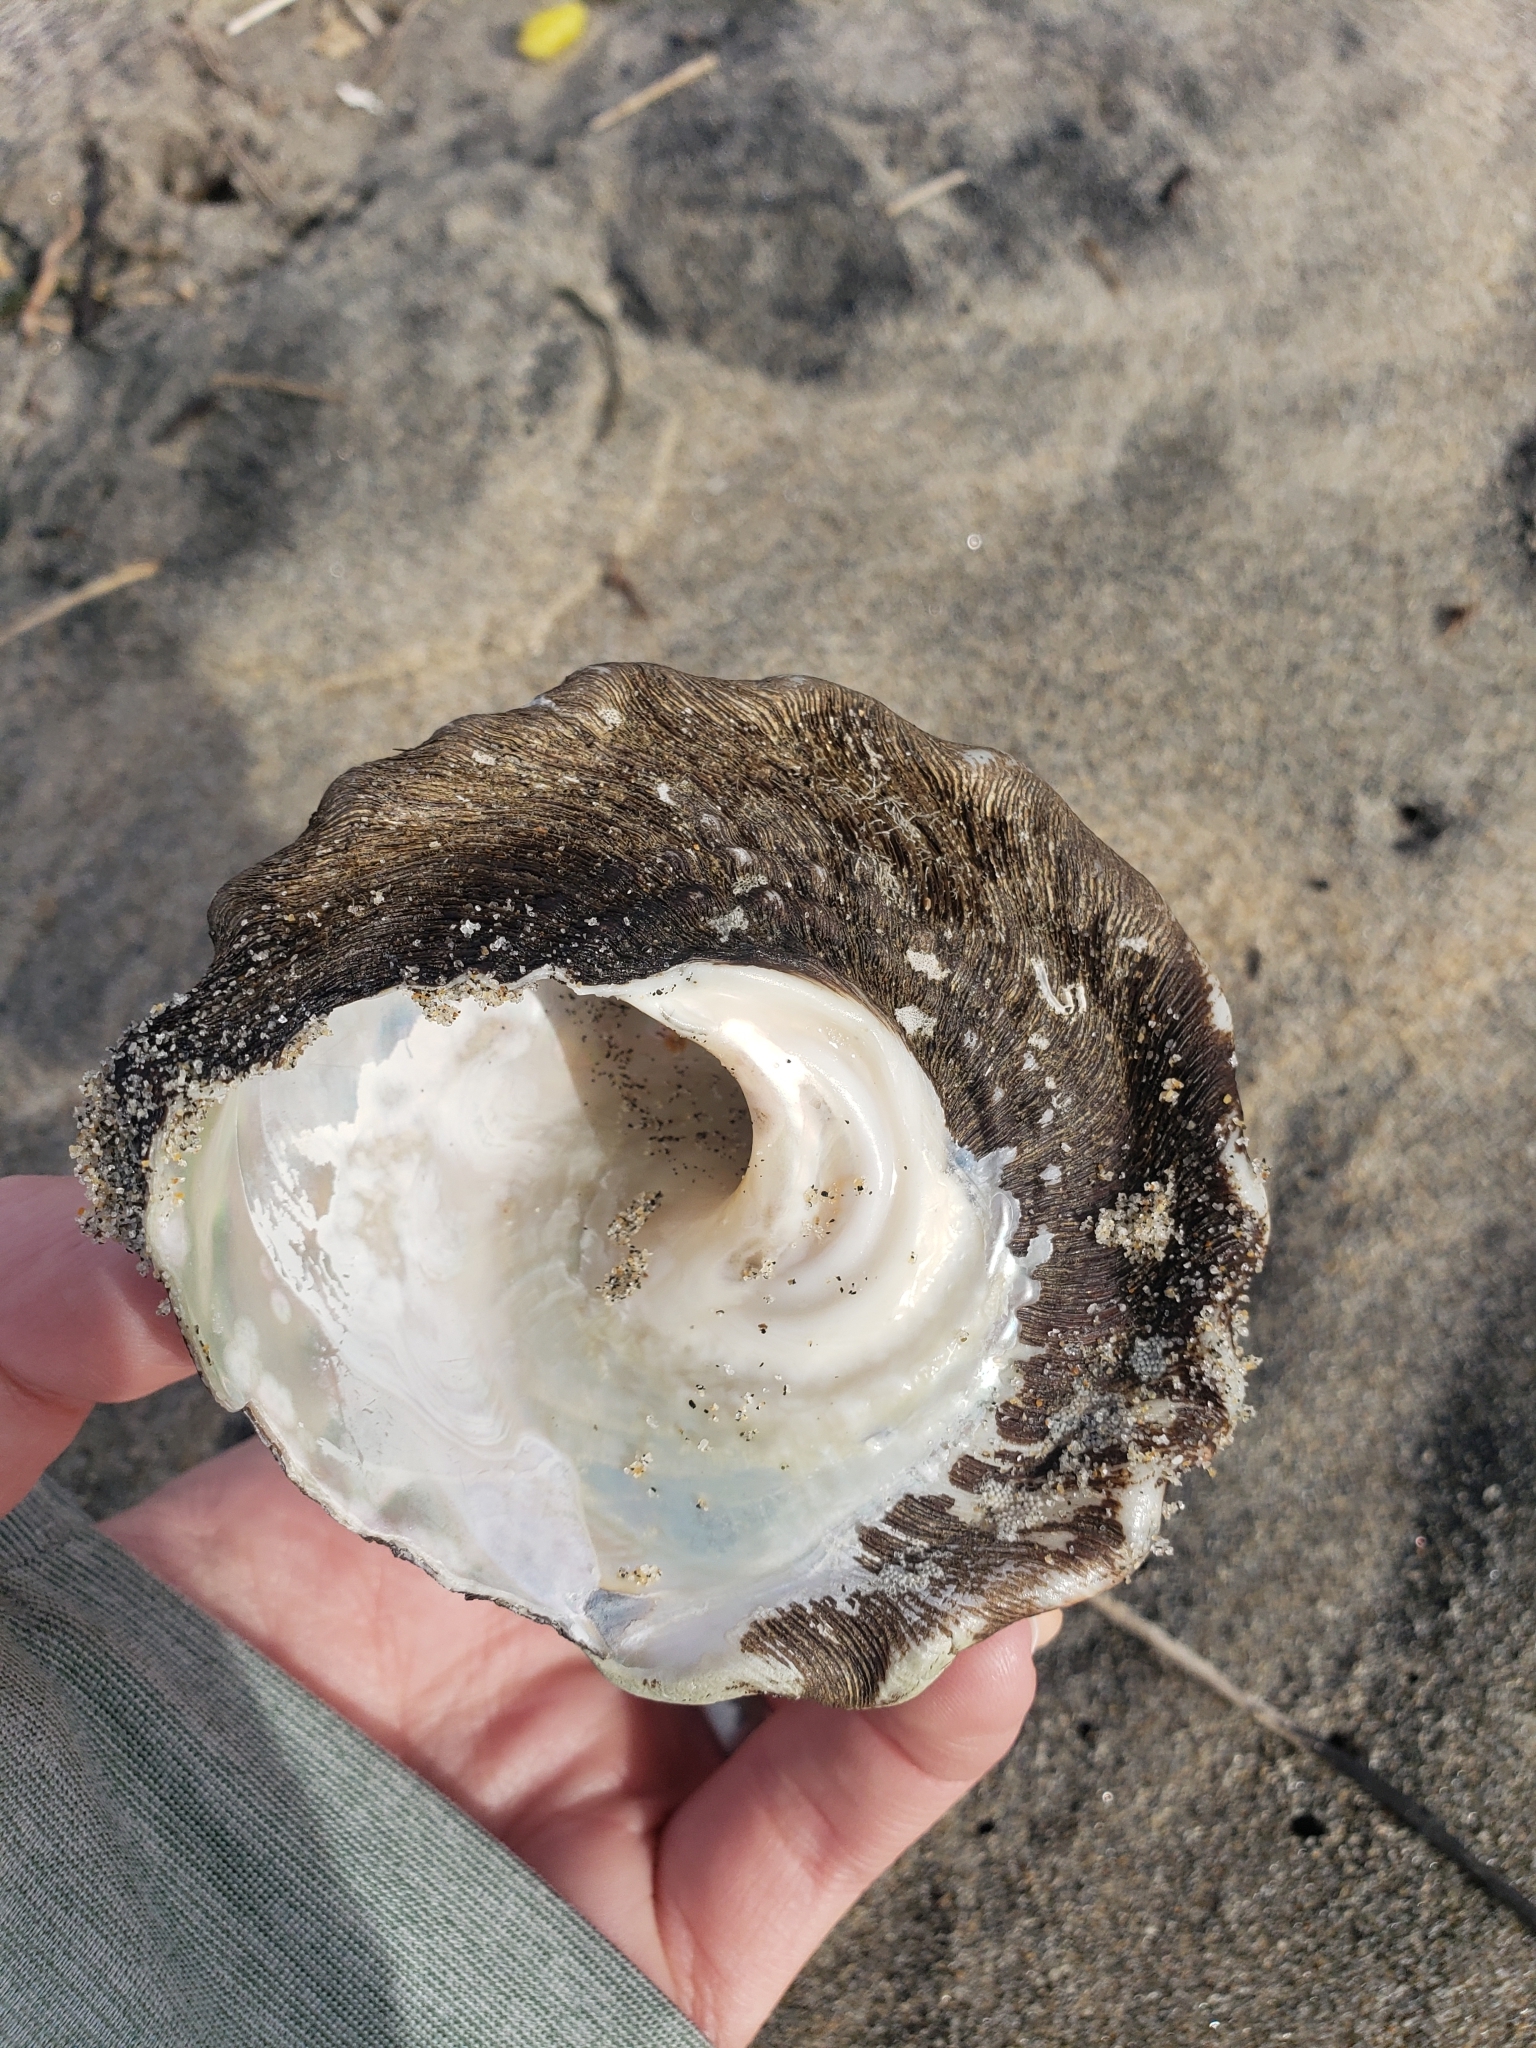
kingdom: Animalia
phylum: Mollusca
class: Gastropoda
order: Trochida
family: Turbinidae
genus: Megastraea
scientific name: Megastraea undosa
